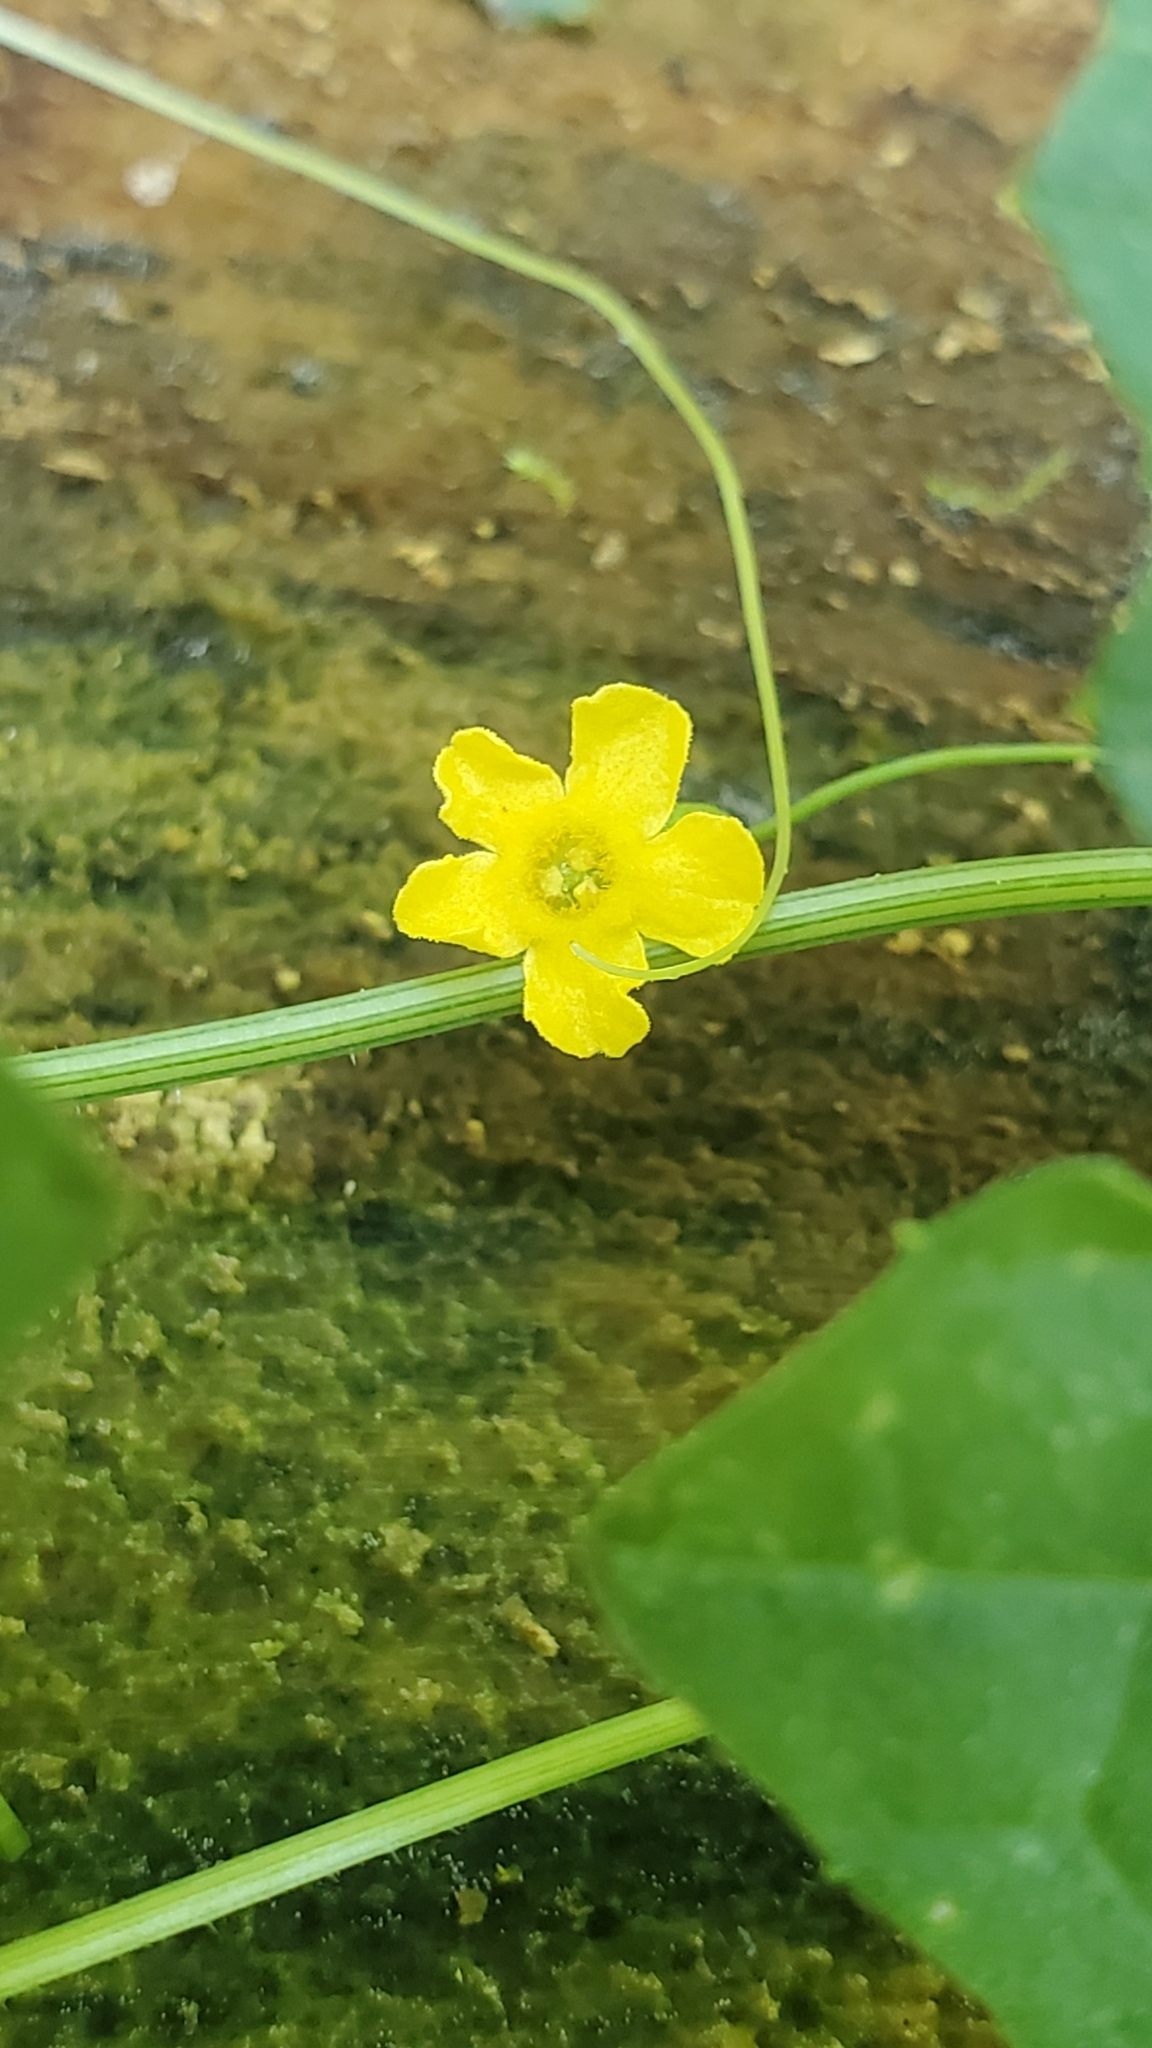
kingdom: Plantae
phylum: Tracheophyta
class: Magnoliopsida
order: Cucurbitales
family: Cucurbitaceae
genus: Melothria
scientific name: Melothria pendula
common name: Creeping-cucumber
